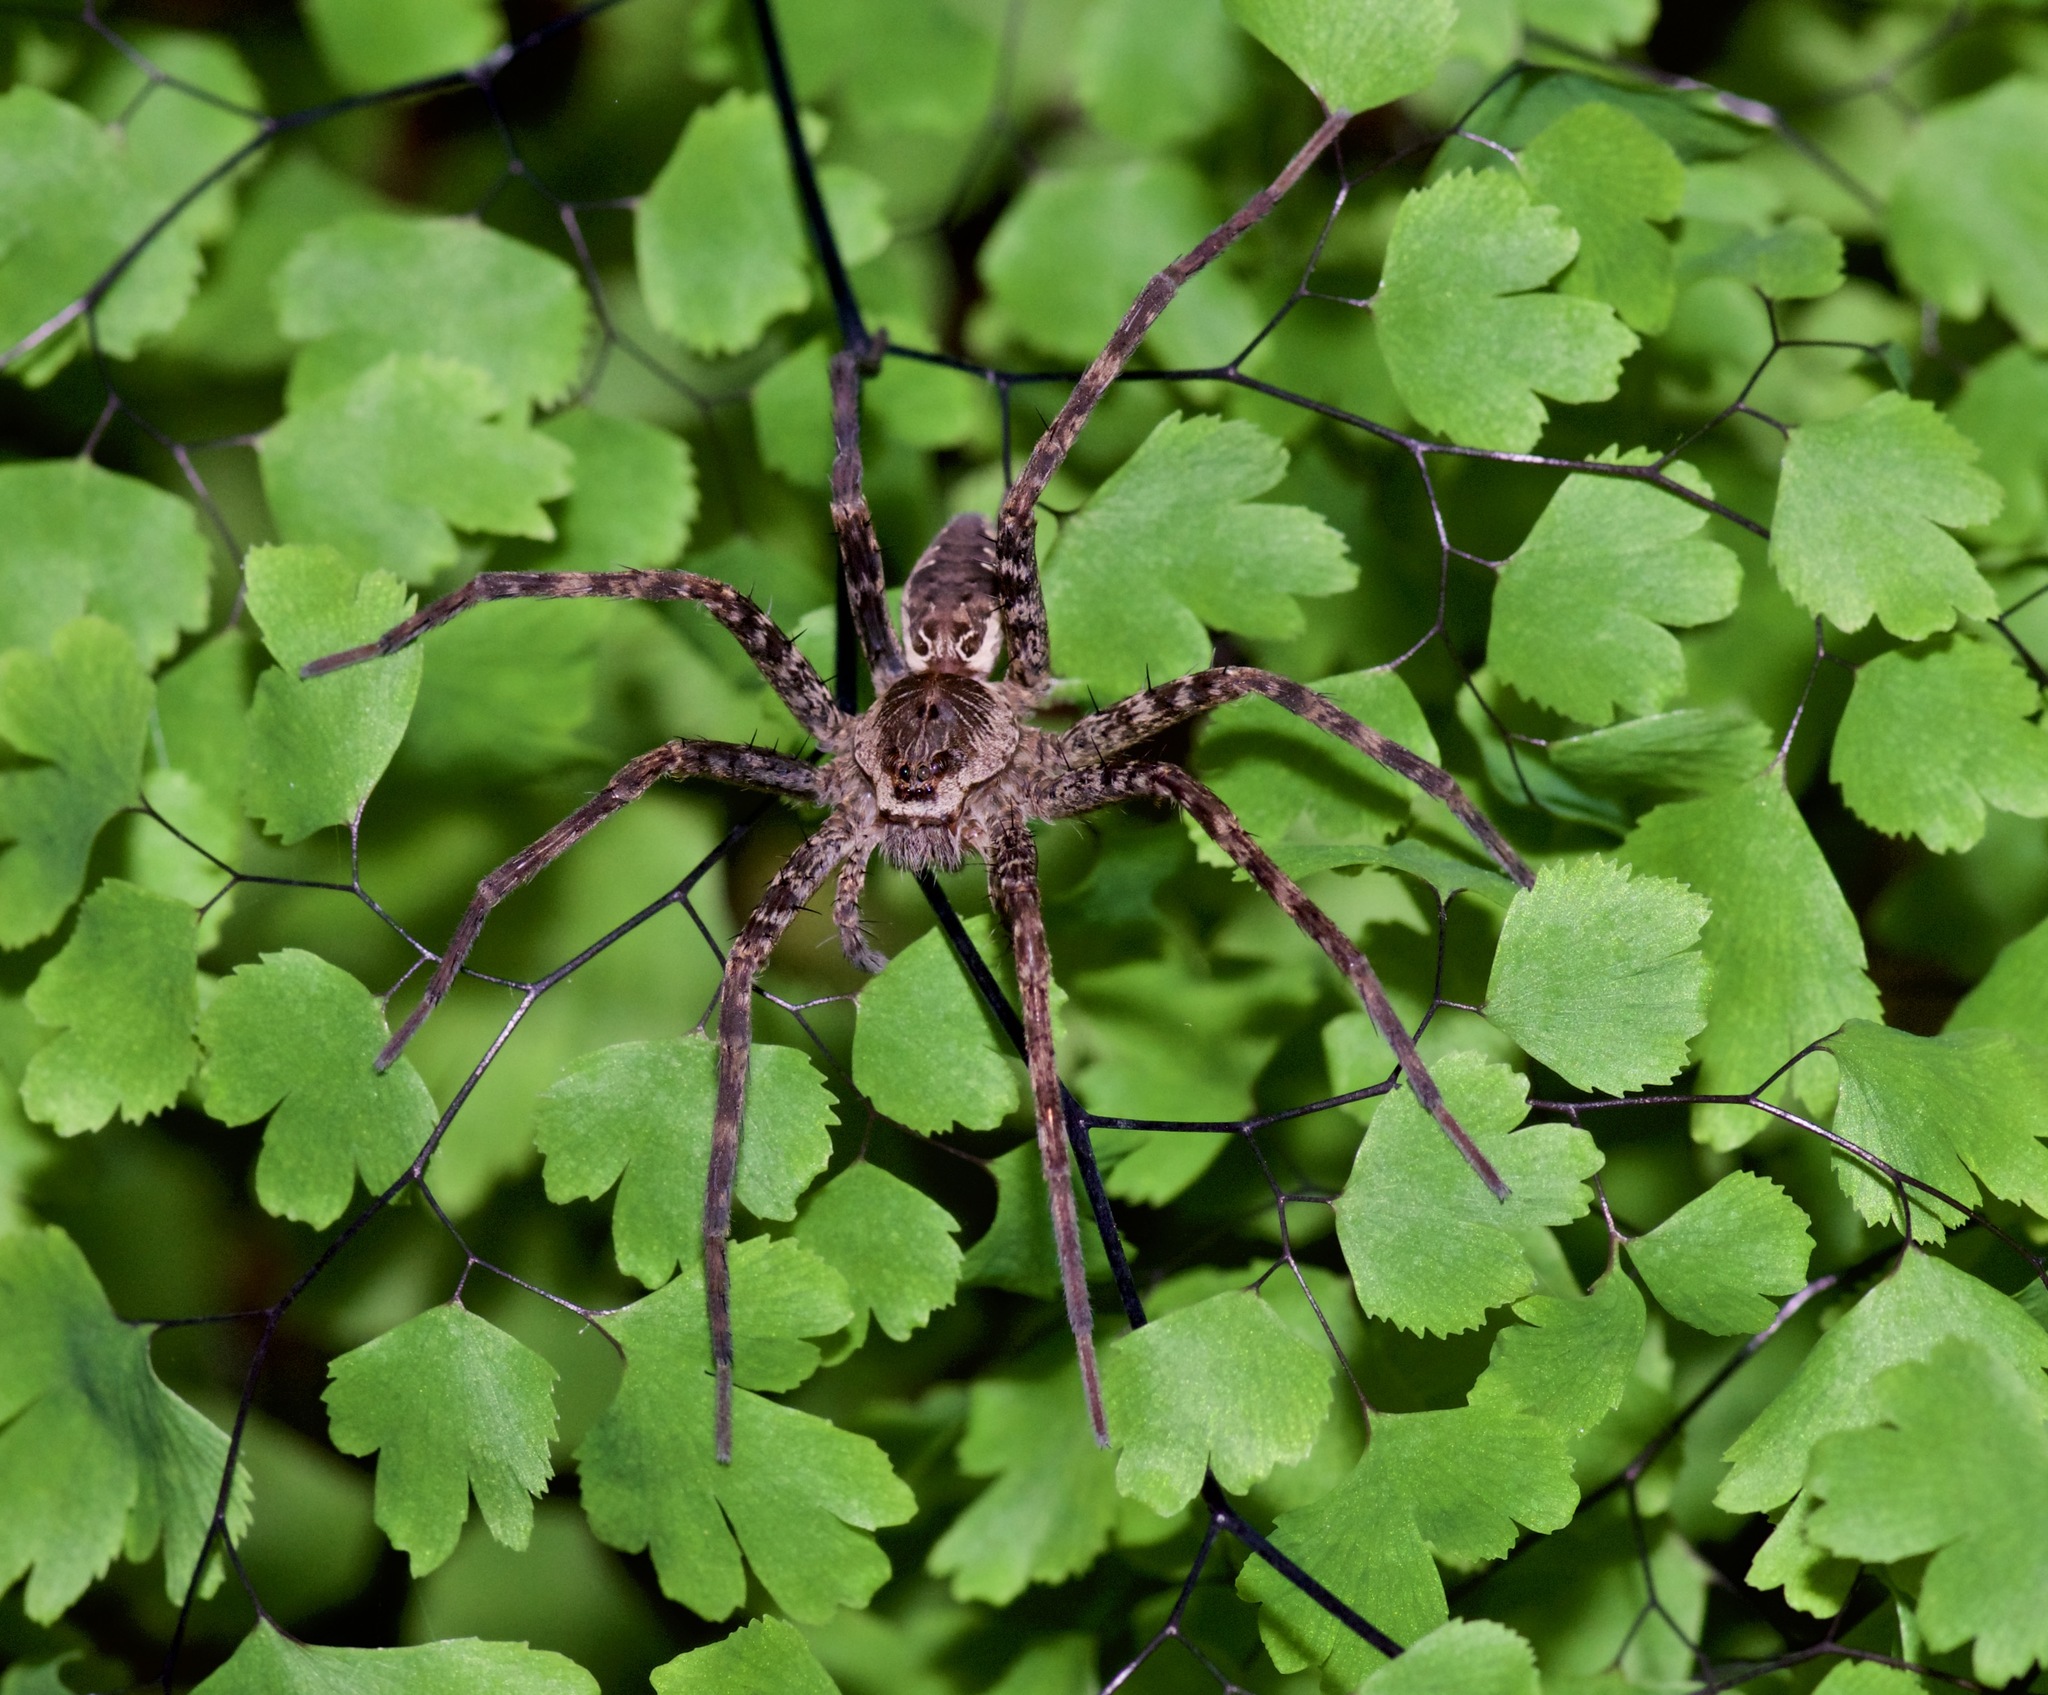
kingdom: Animalia
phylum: Arthropoda
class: Arachnida
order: Araneae
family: Pisauridae
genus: Dolomedes
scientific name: Dolomedes vittatus
